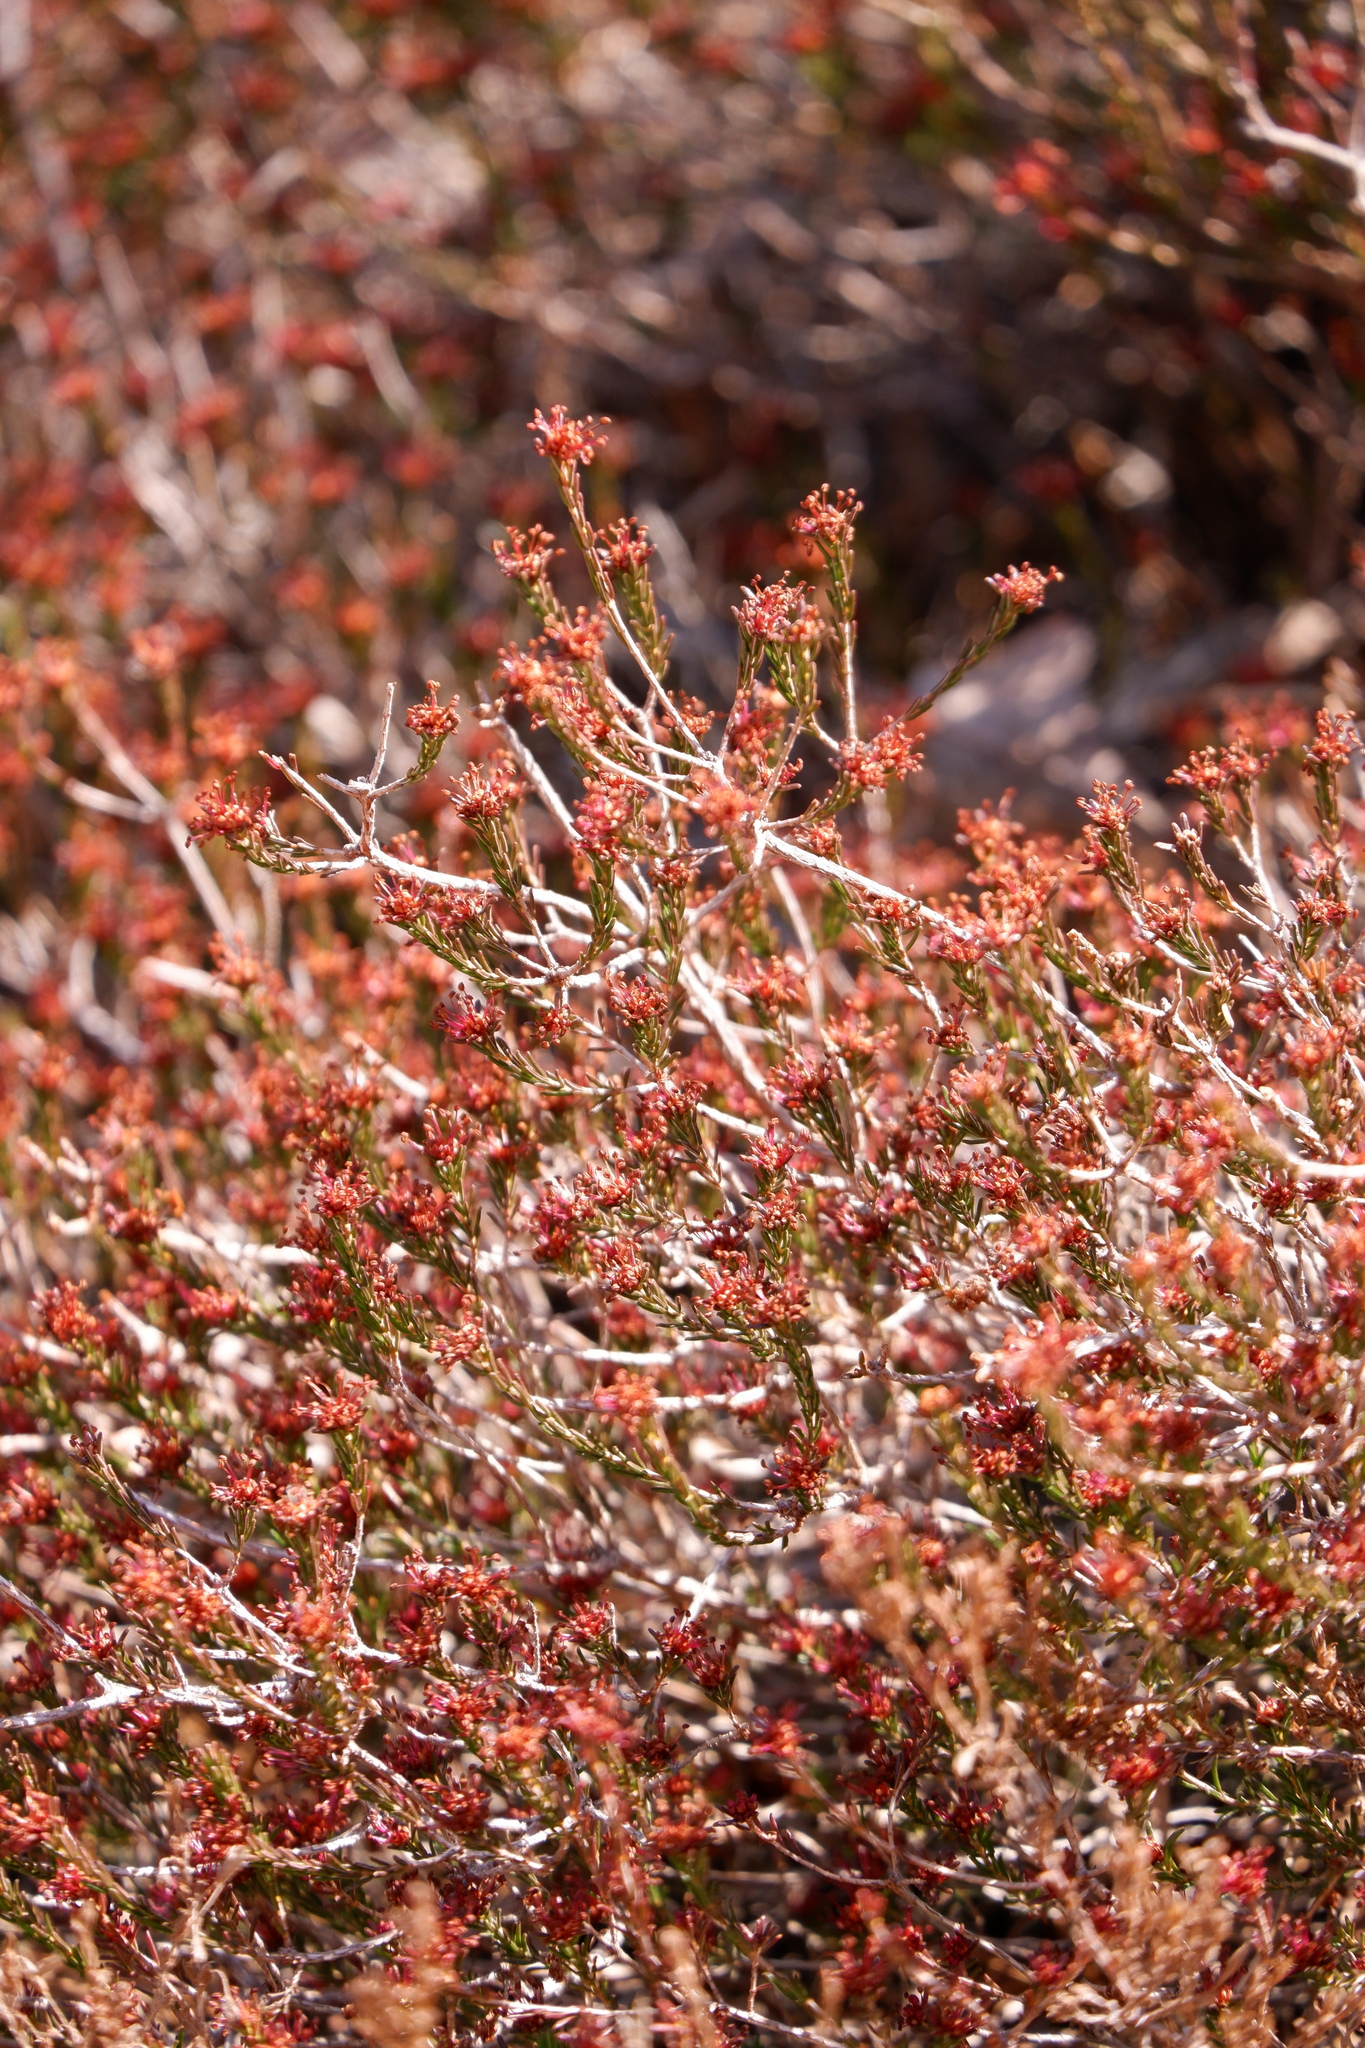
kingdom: Plantae
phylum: Tracheophyta
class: Magnoliopsida
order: Ericales
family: Ericaceae
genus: Corema
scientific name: Corema conradii
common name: Broom-crowberry
